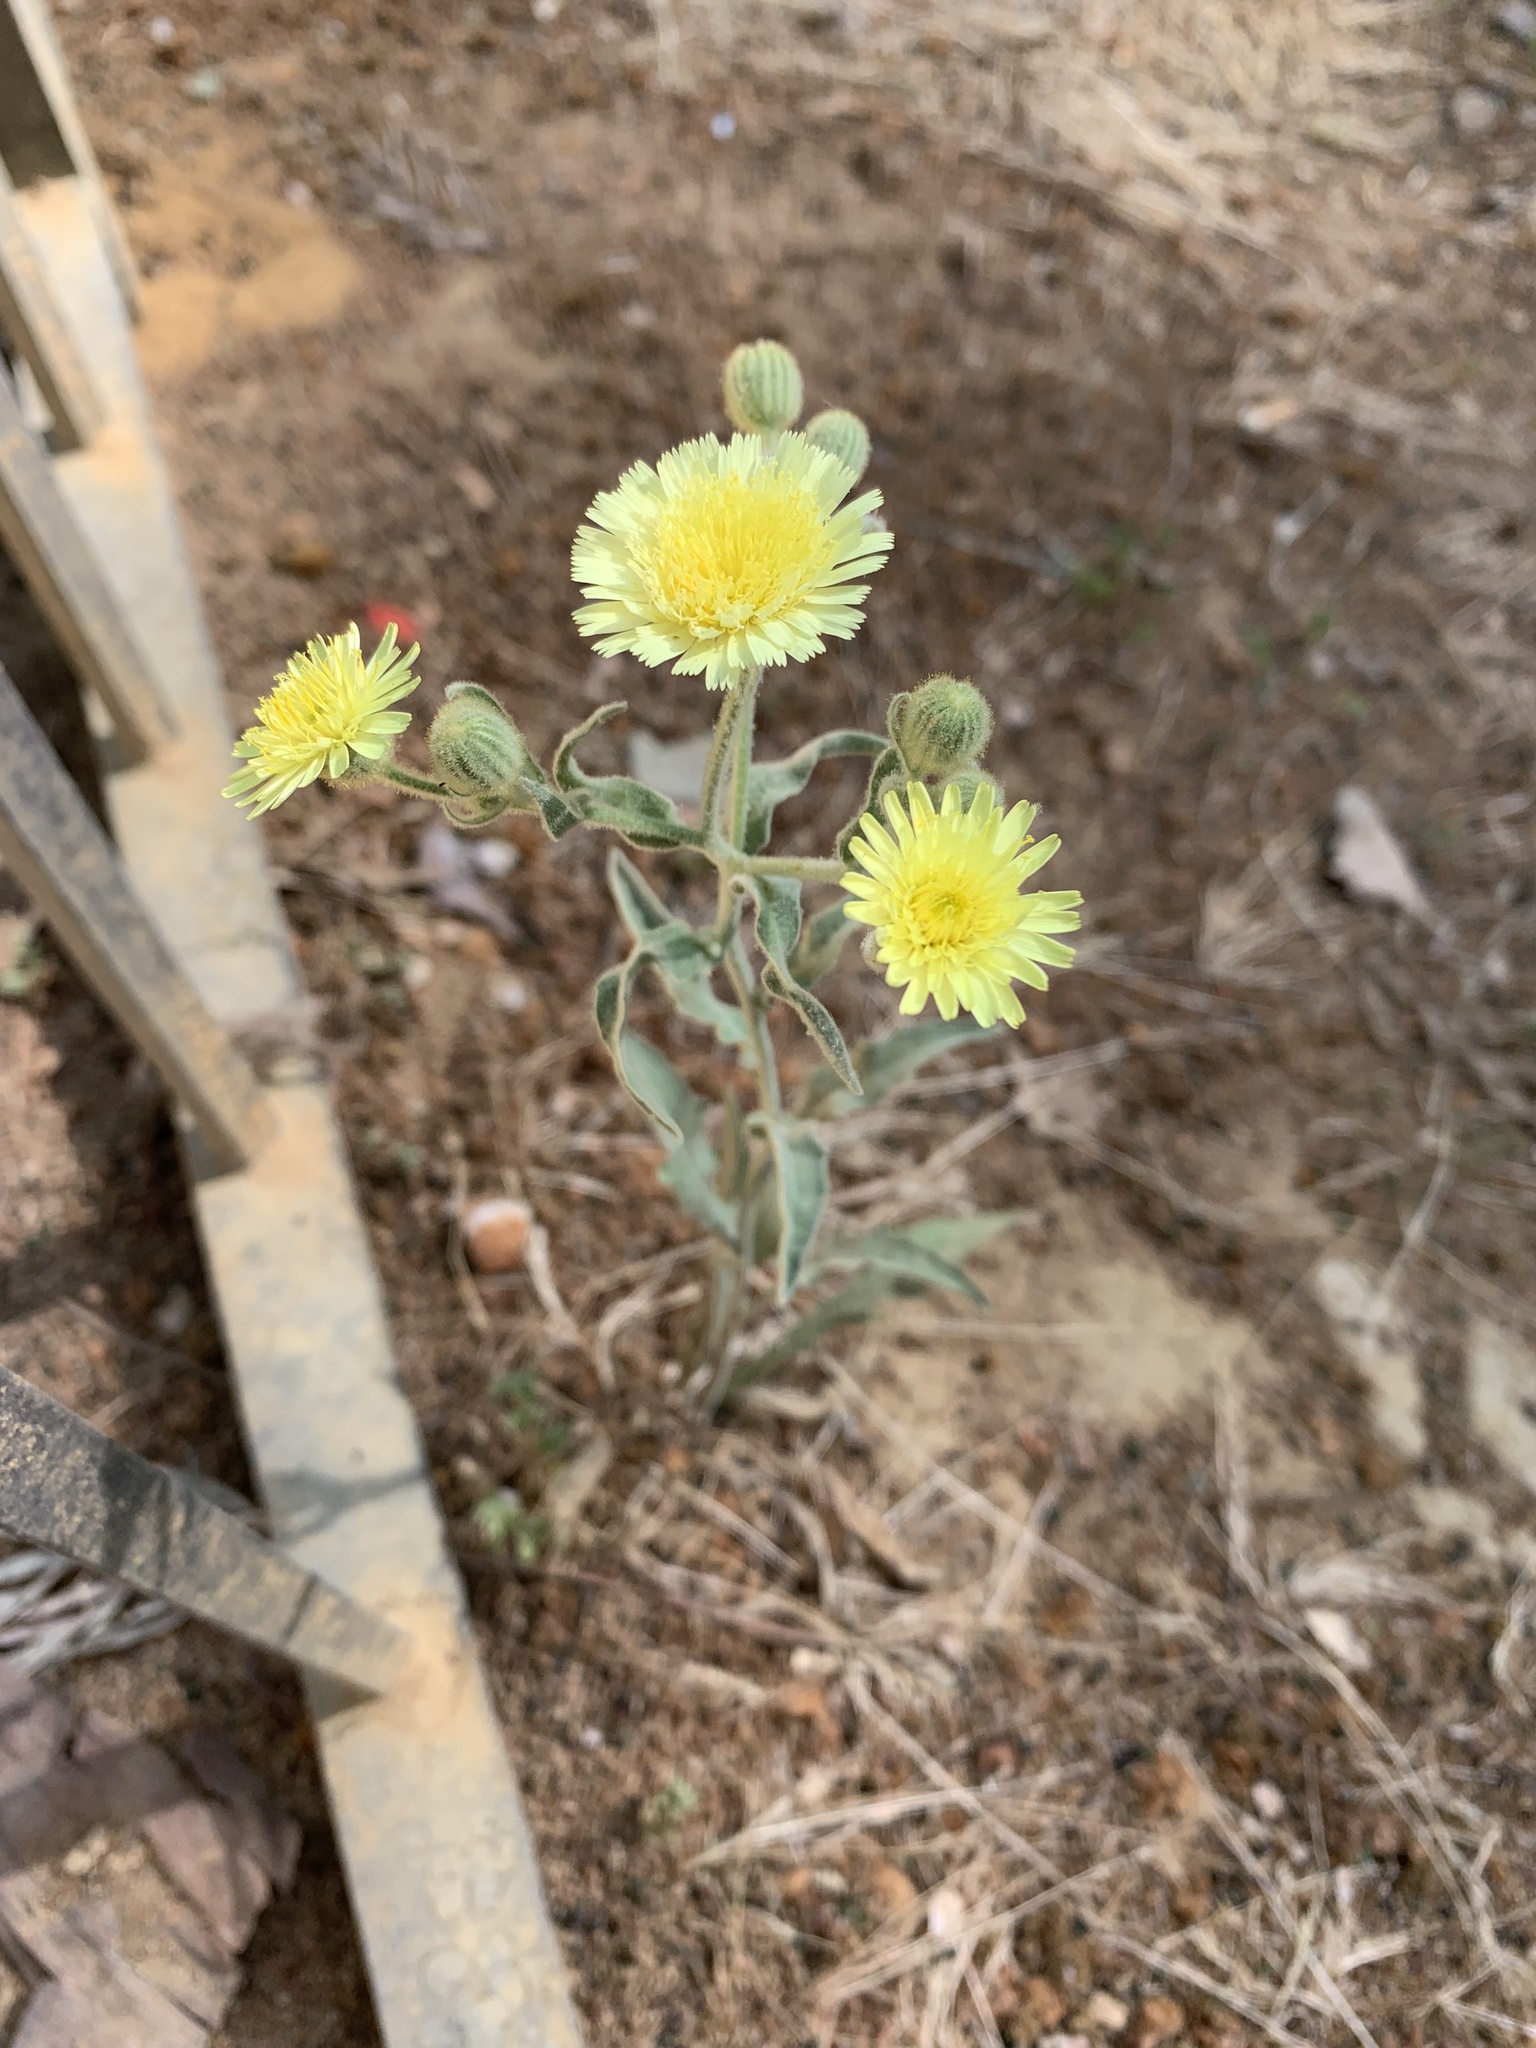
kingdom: Plantae
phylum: Tracheophyta
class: Magnoliopsida
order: Asterales
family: Asteraceae
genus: Andryala
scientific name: Andryala integrifolia
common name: Common andryala
